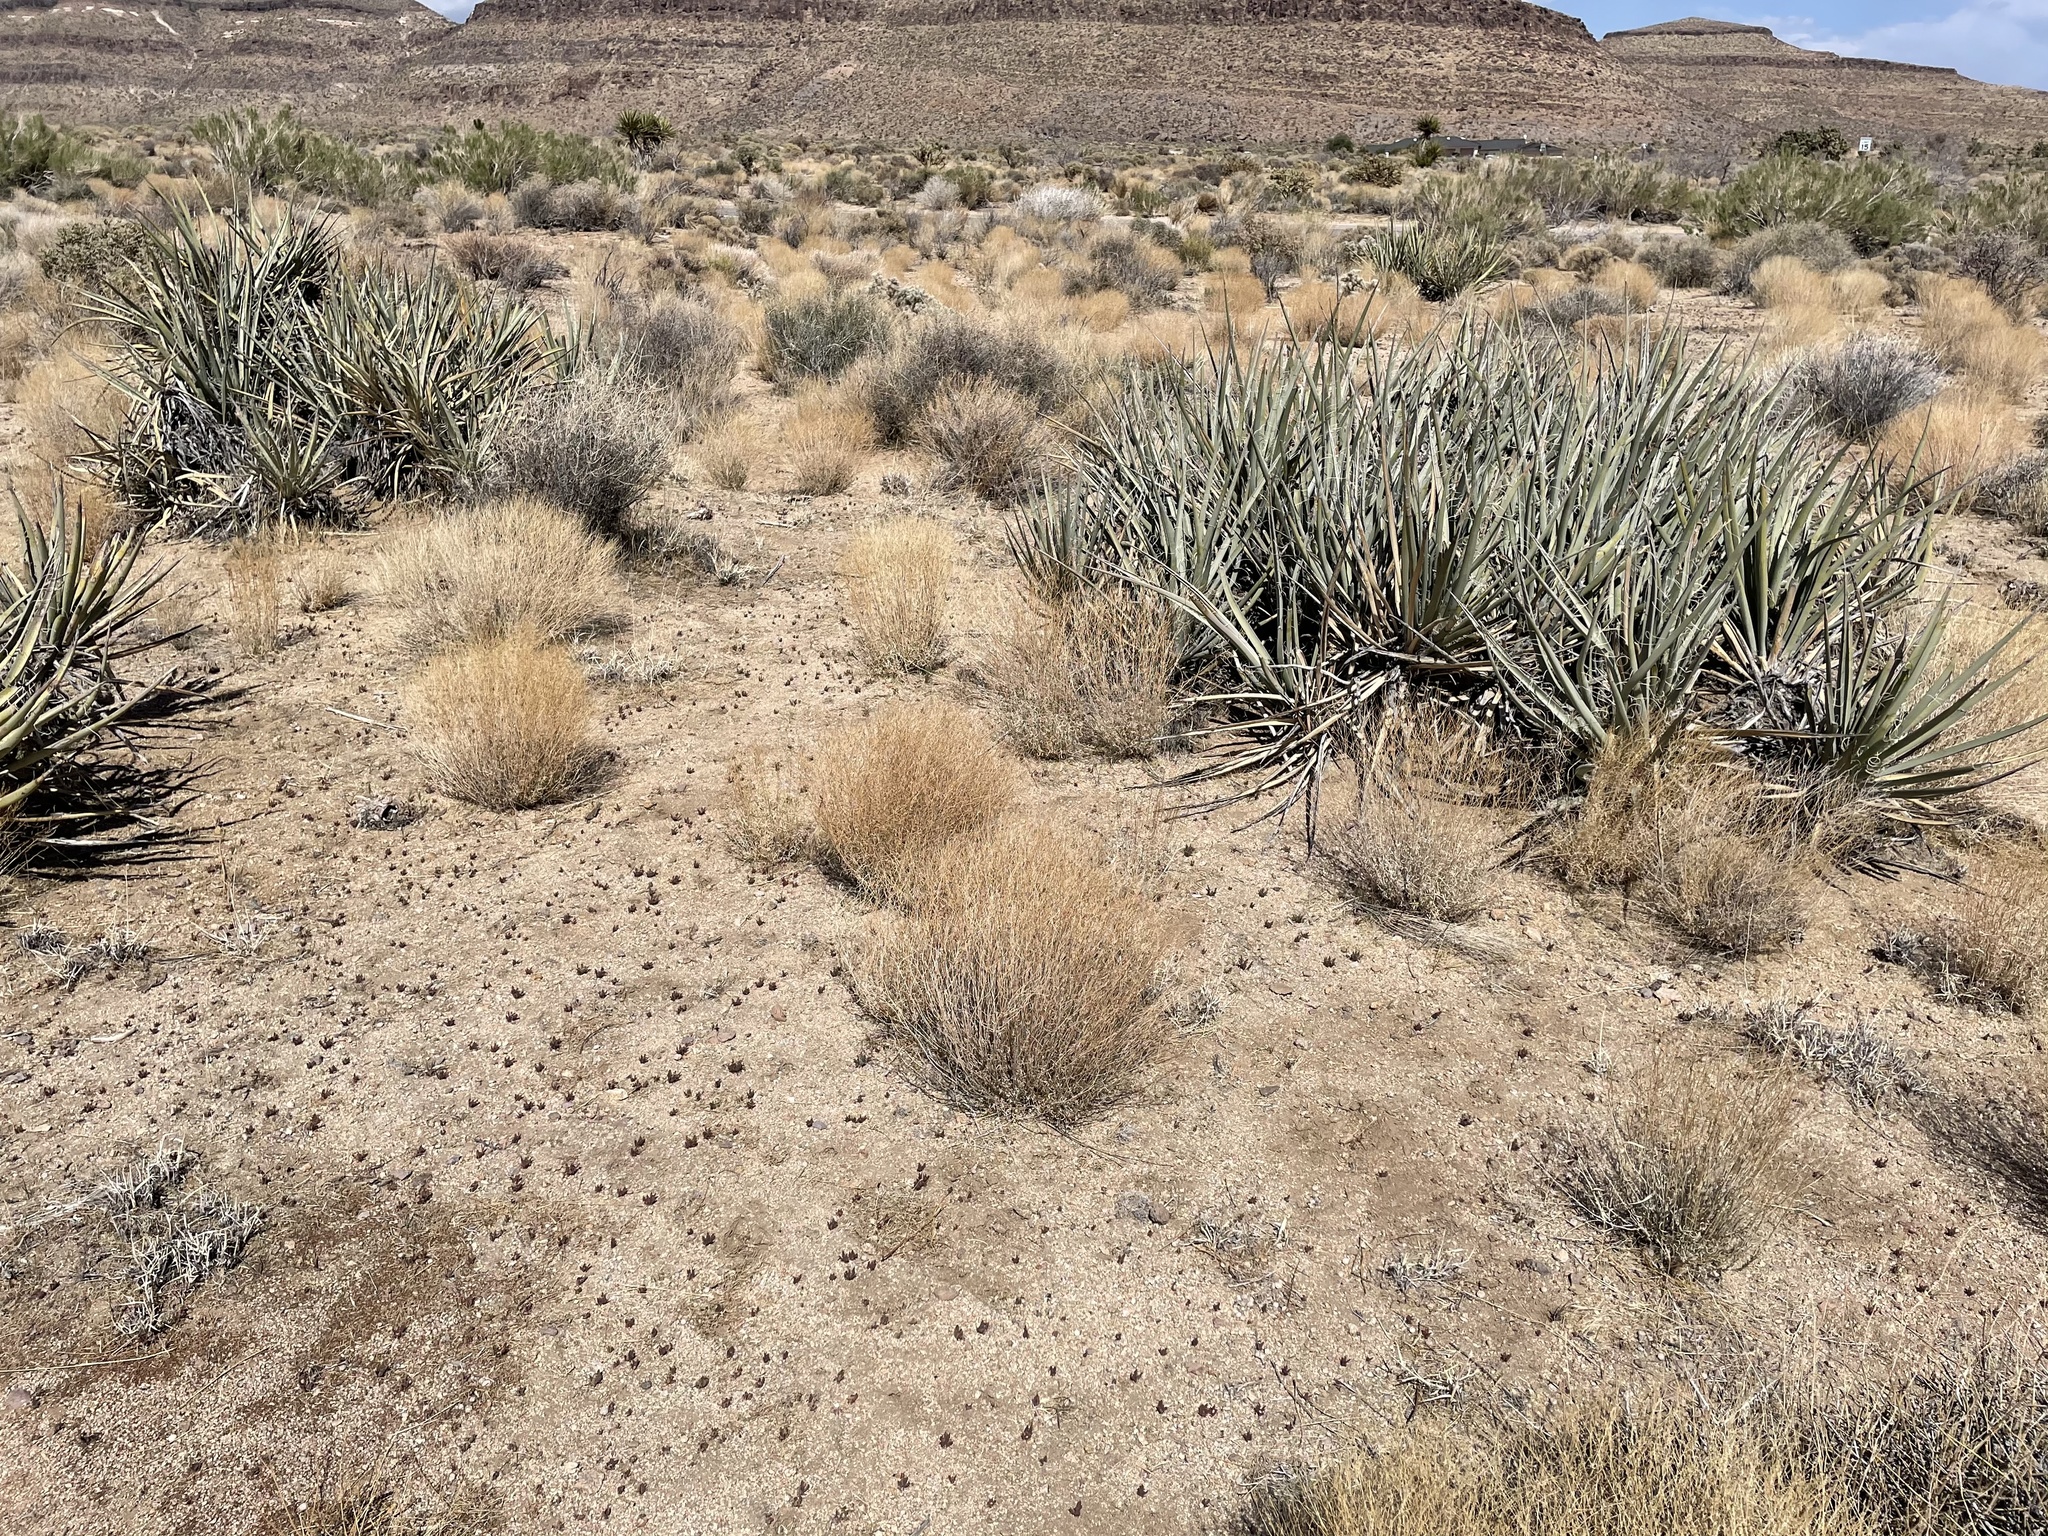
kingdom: Plantae
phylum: Tracheophyta
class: Liliopsida
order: Asparagales
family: Asparagaceae
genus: Yucca
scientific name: Yucca baccata
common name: Banana yucca
